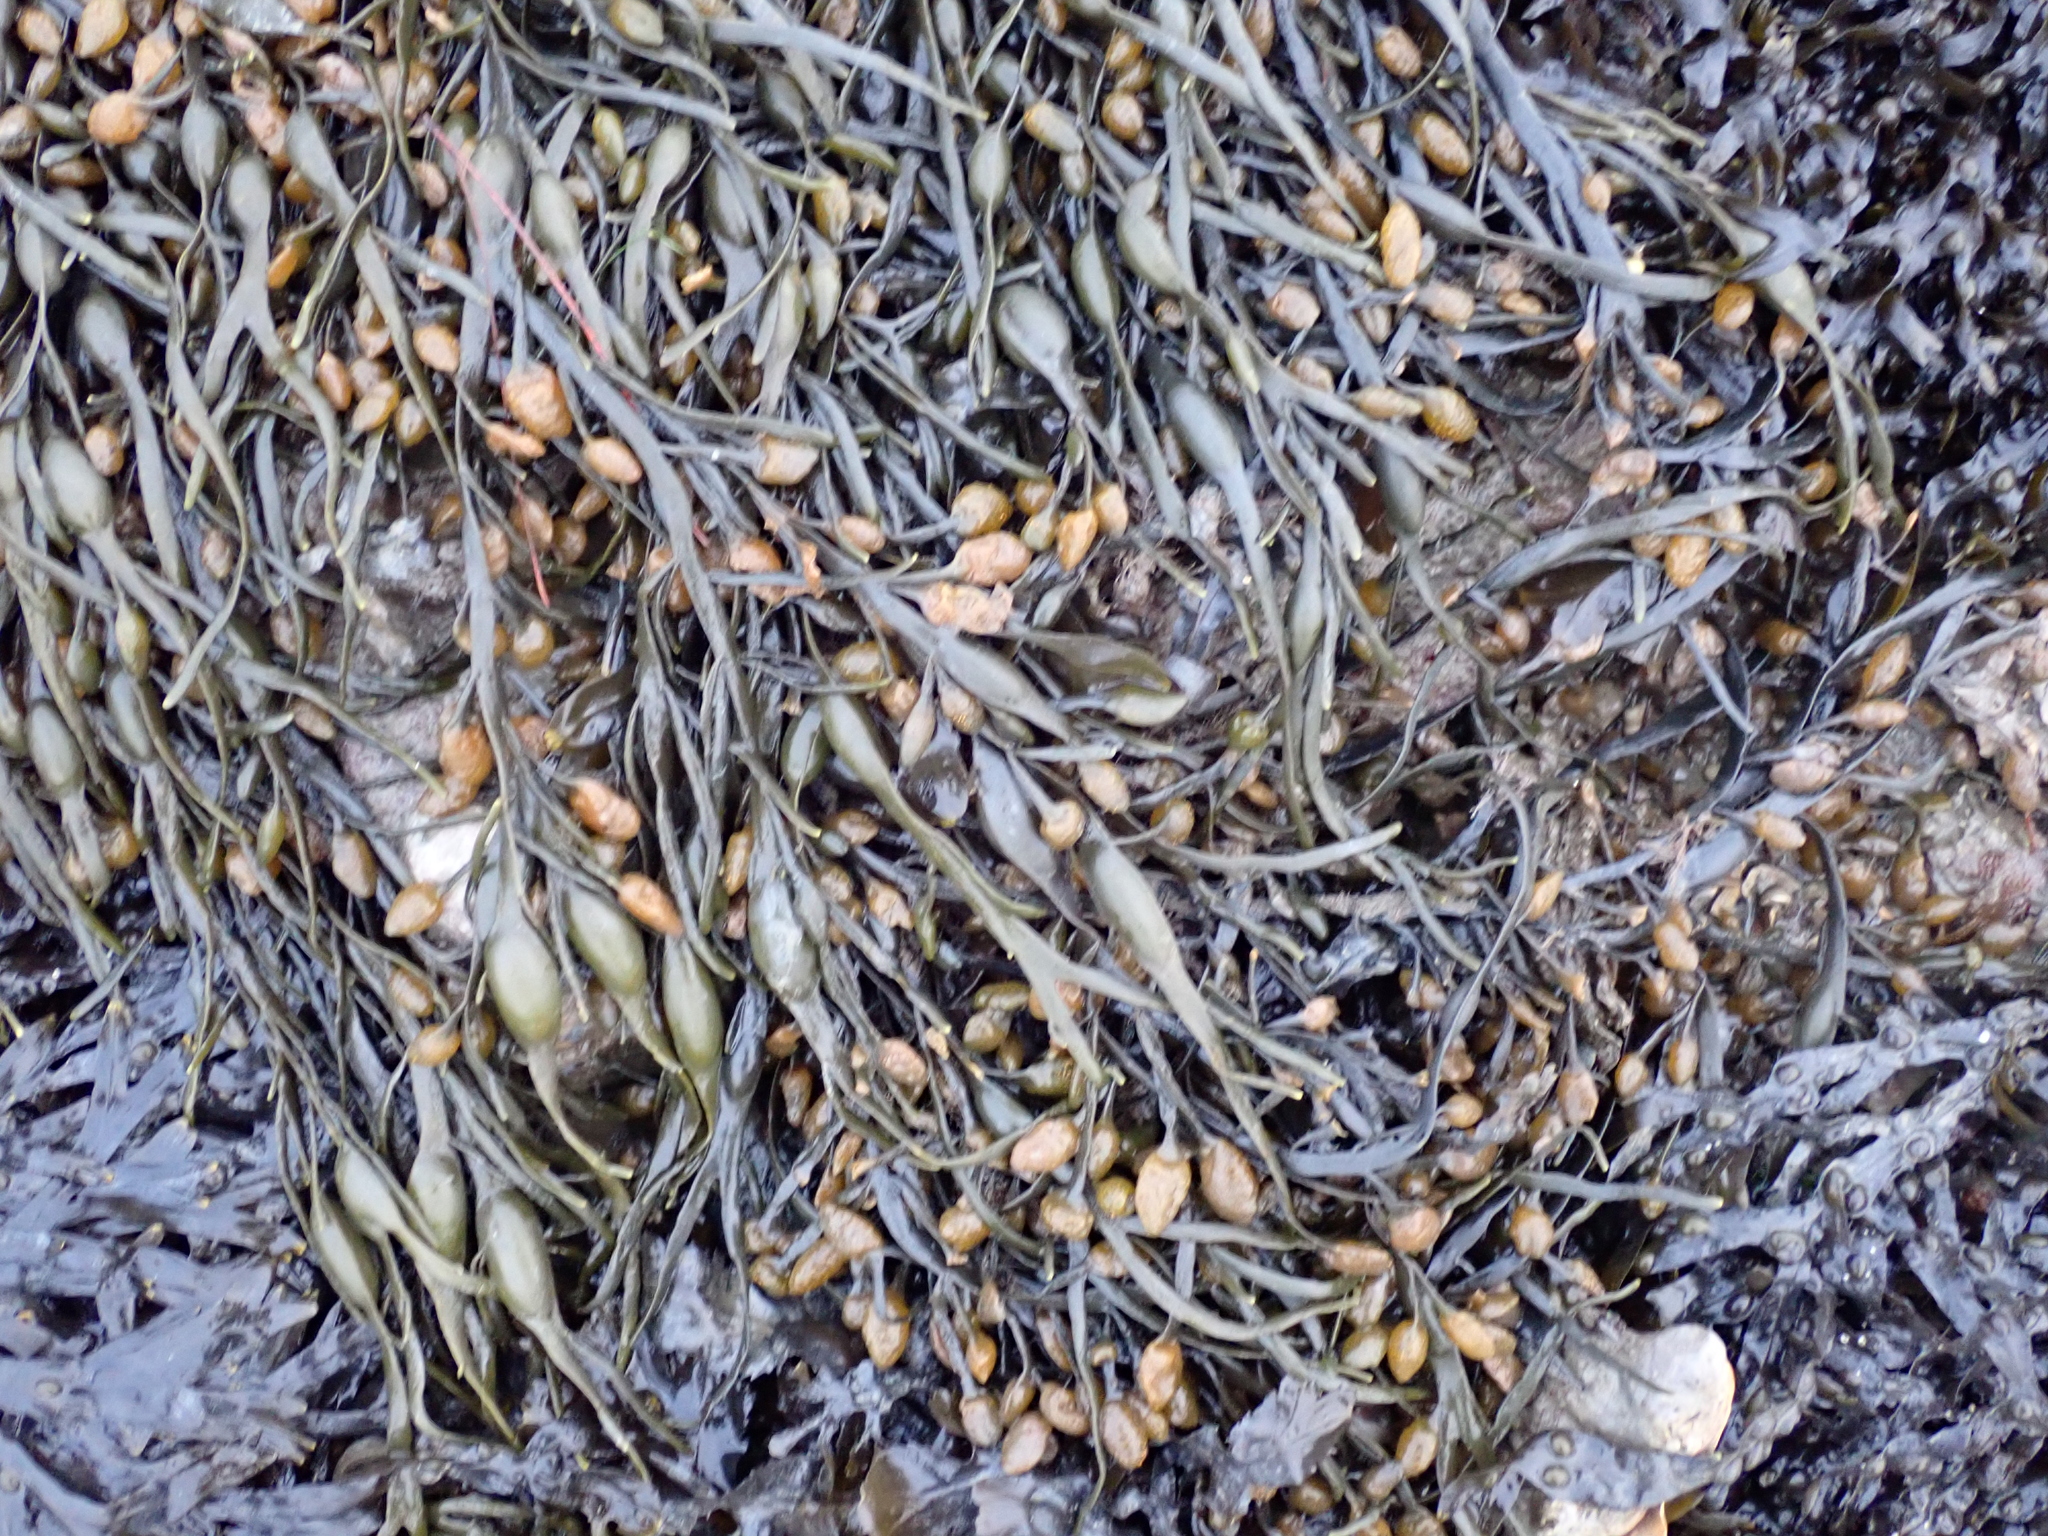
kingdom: Chromista
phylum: Ochrophyta
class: Phaeophyceae
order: Fucales
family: Fucaceae
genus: Ascophyllum
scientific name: Ascophyllum nodosum
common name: Knotted wrack
